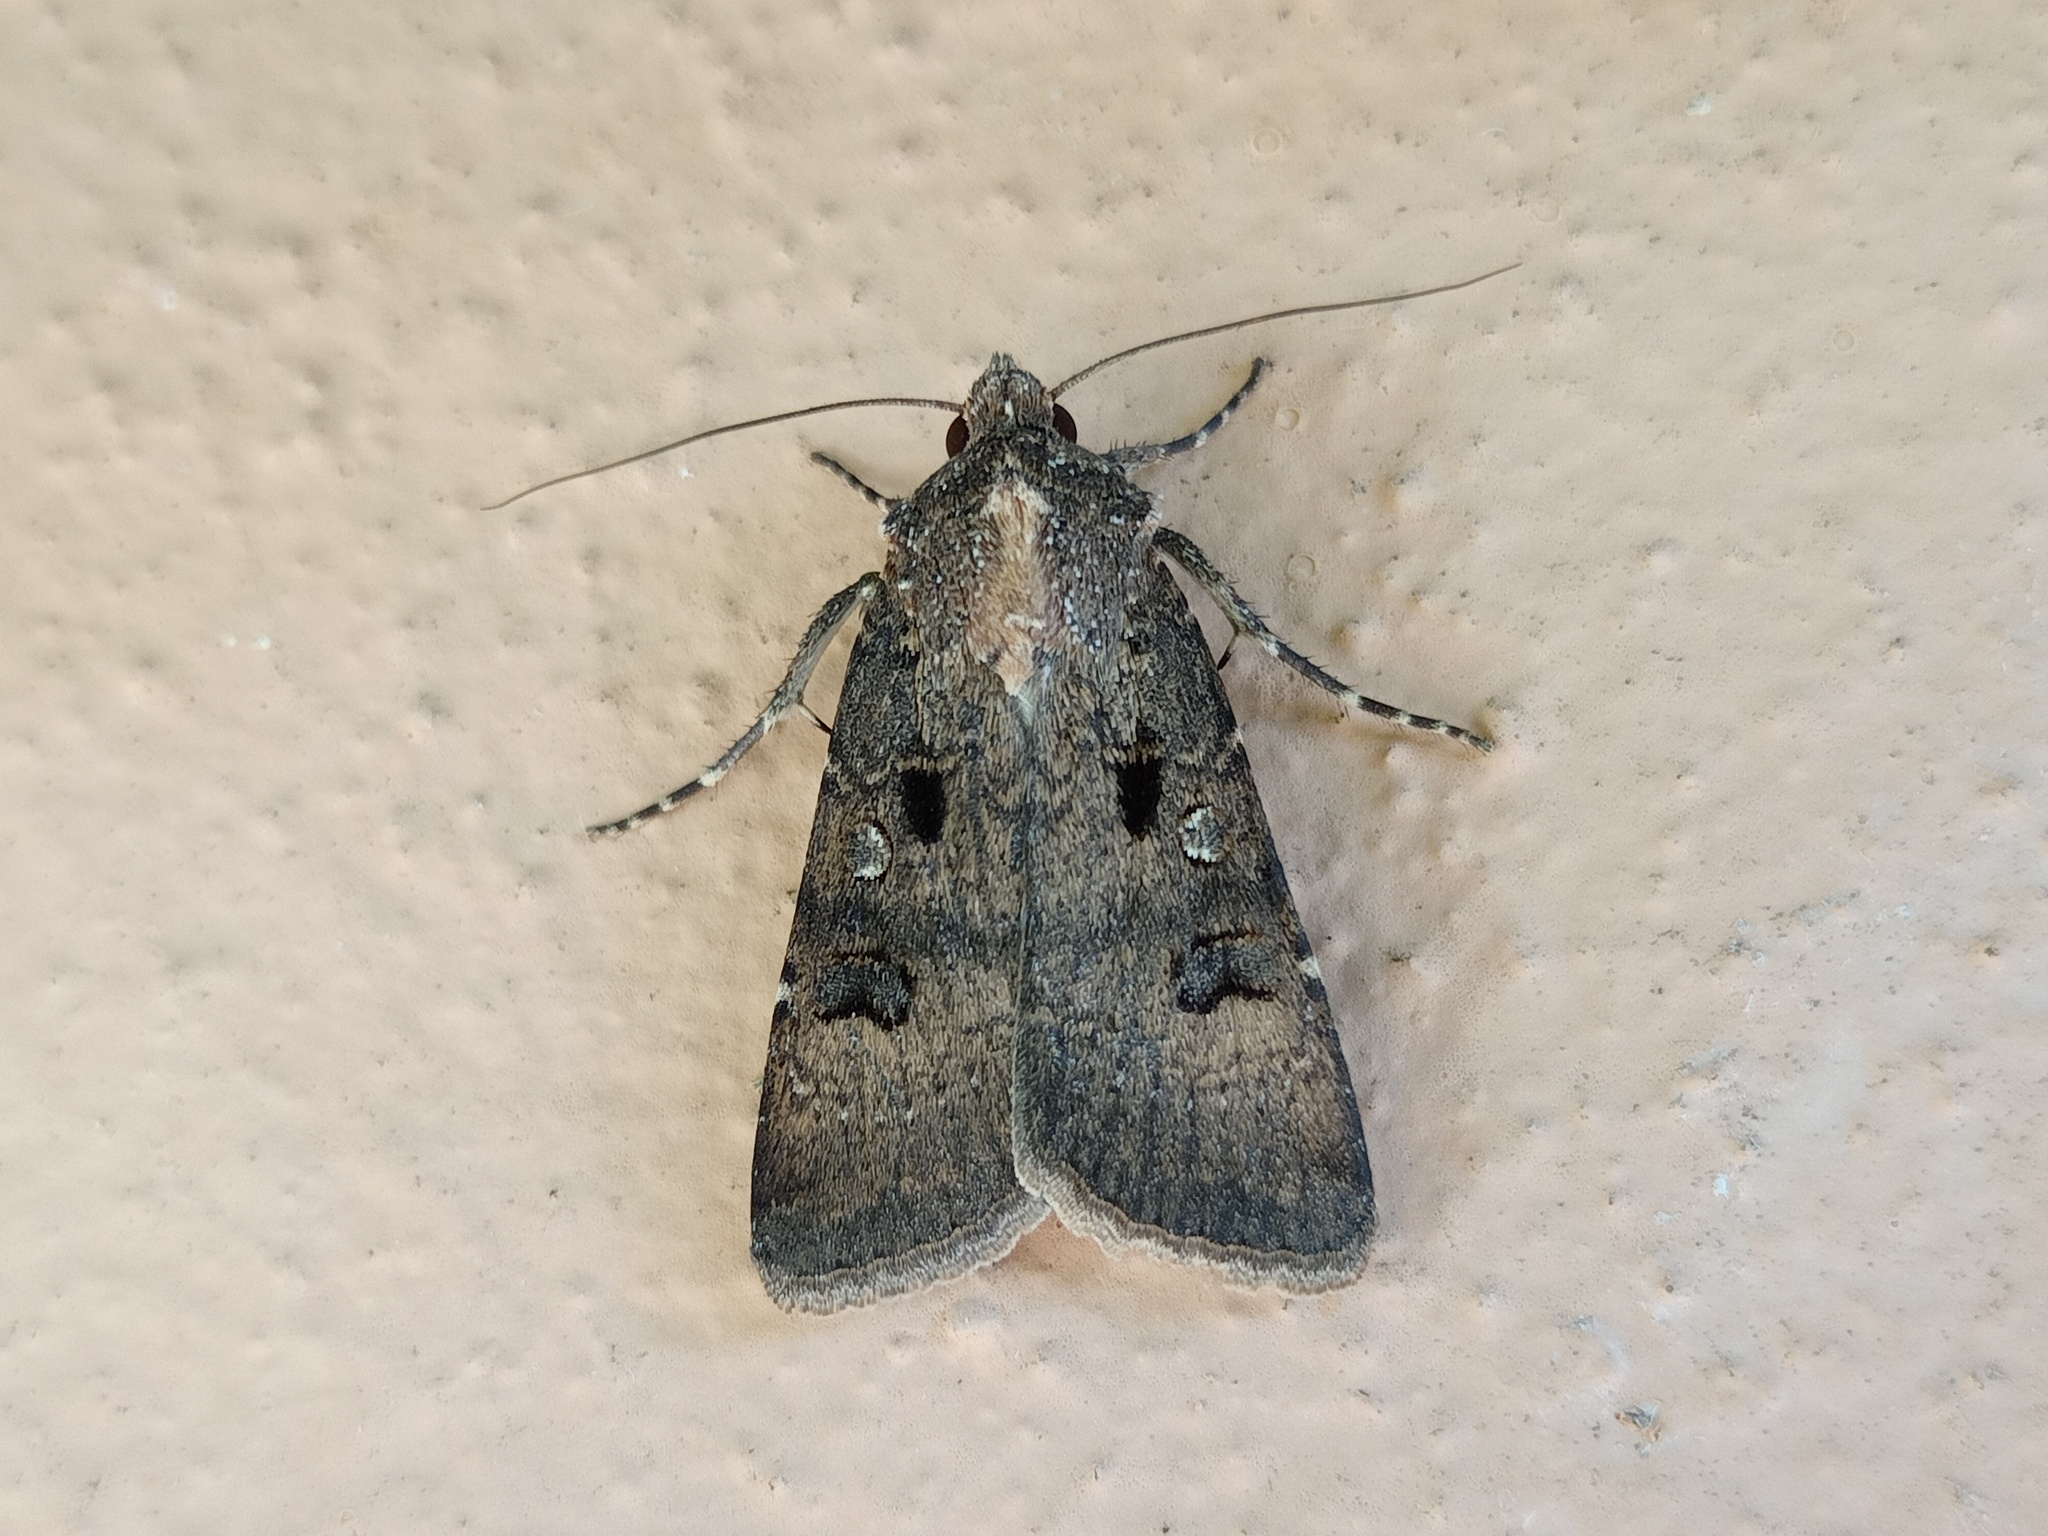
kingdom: Animalia
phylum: Arthropoda
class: Insecta
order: Lepidoptera
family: Noctuidae
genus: Agrotis
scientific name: Agrotis trux
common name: Crescent dart
